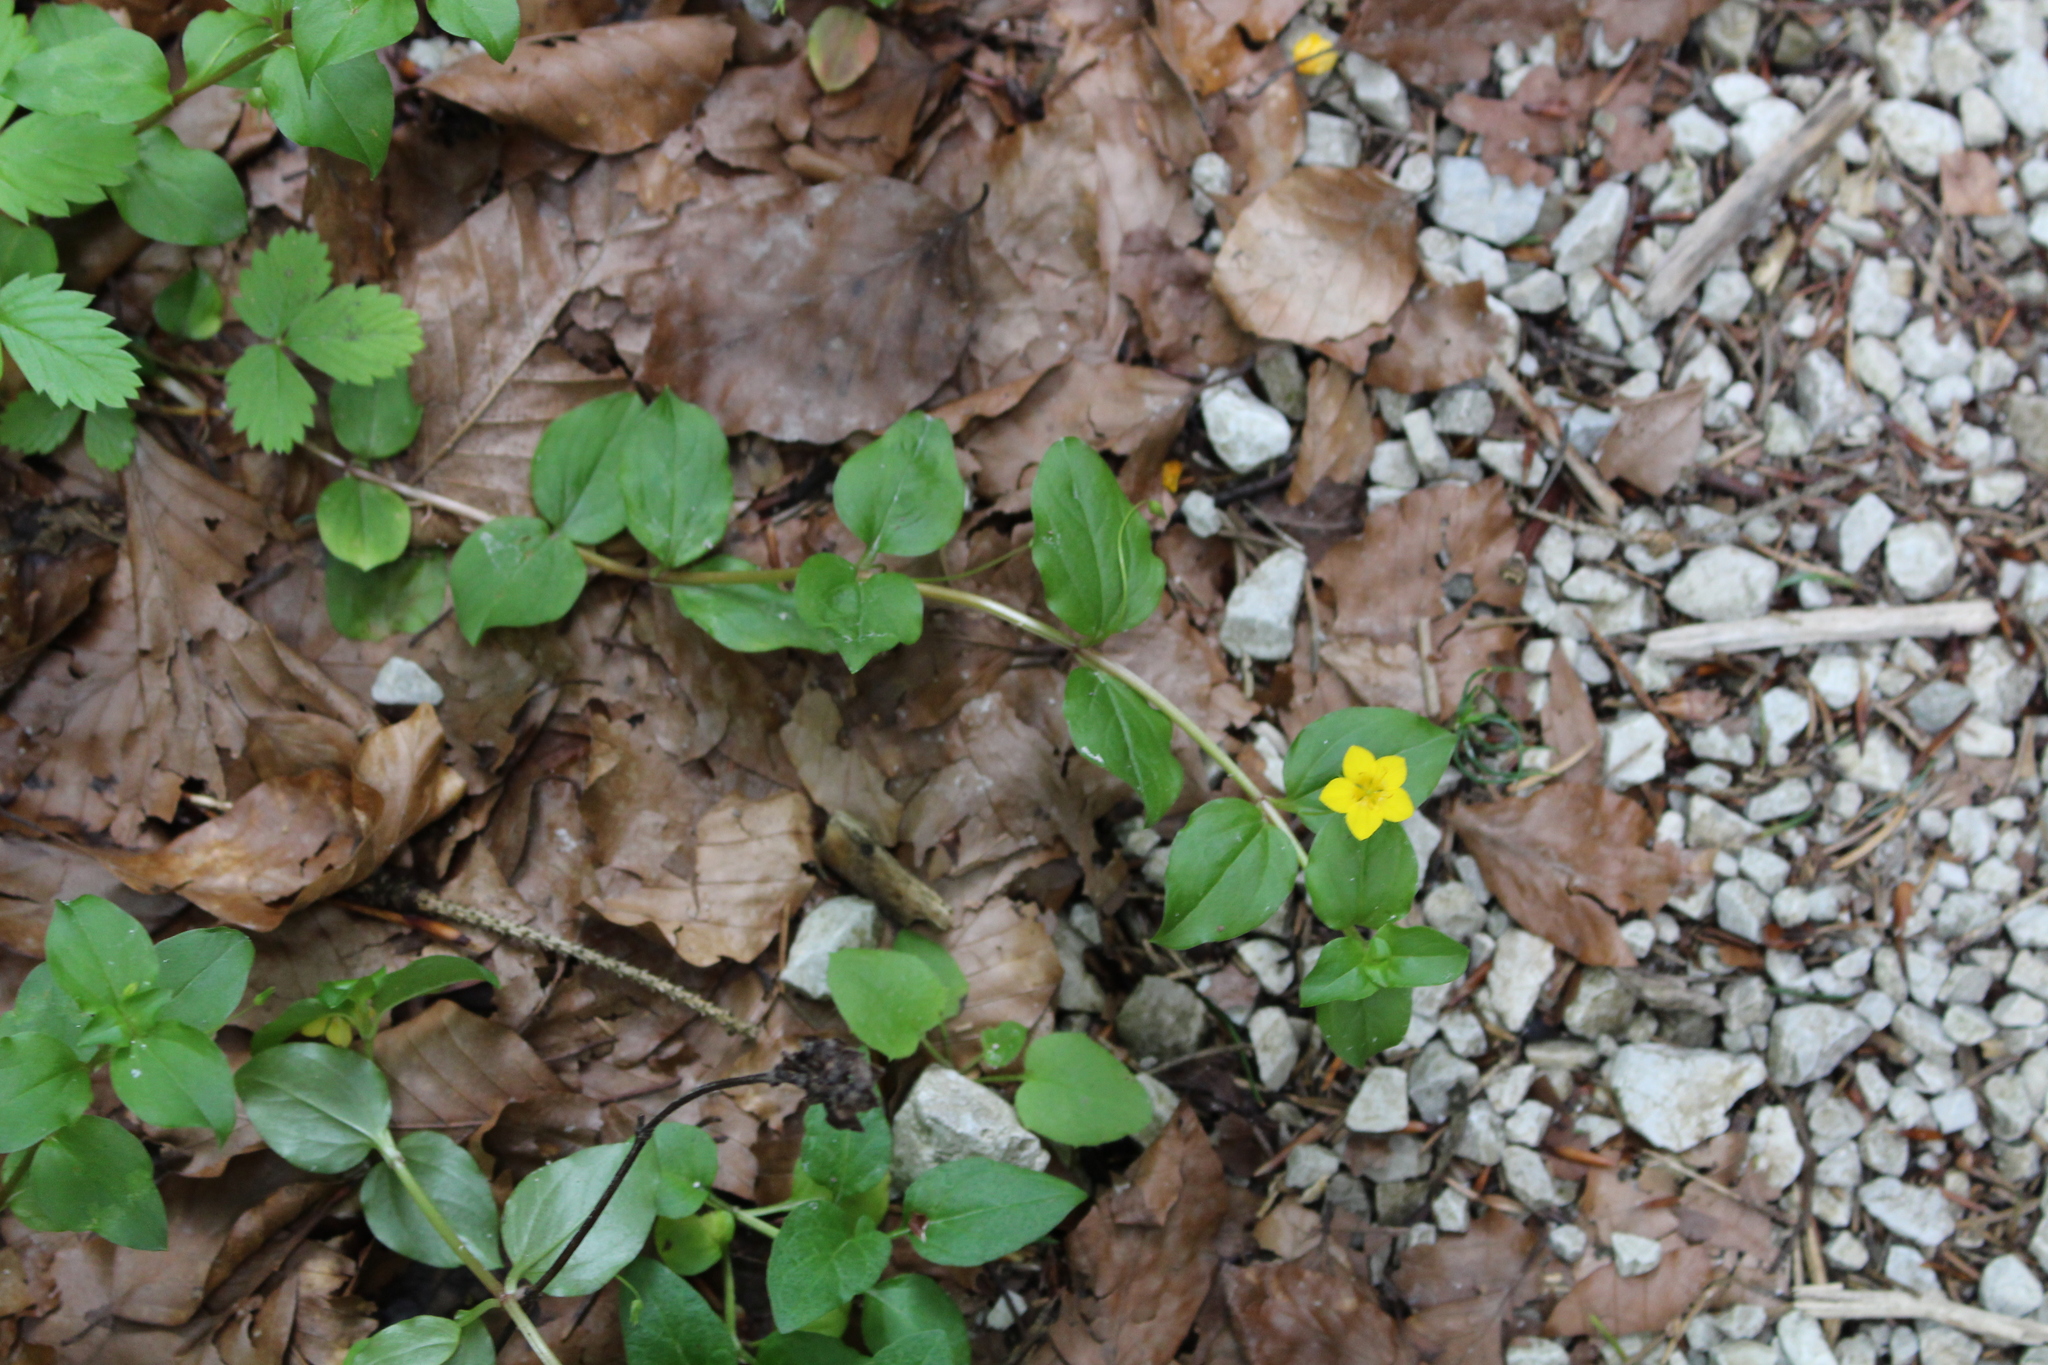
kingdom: Plantae
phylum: Tracheophyta
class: Magnoliopsida
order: Ericales
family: Primulaceae
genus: Lysimachia
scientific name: Lysimachia nemorum
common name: Yellow pimpernel
